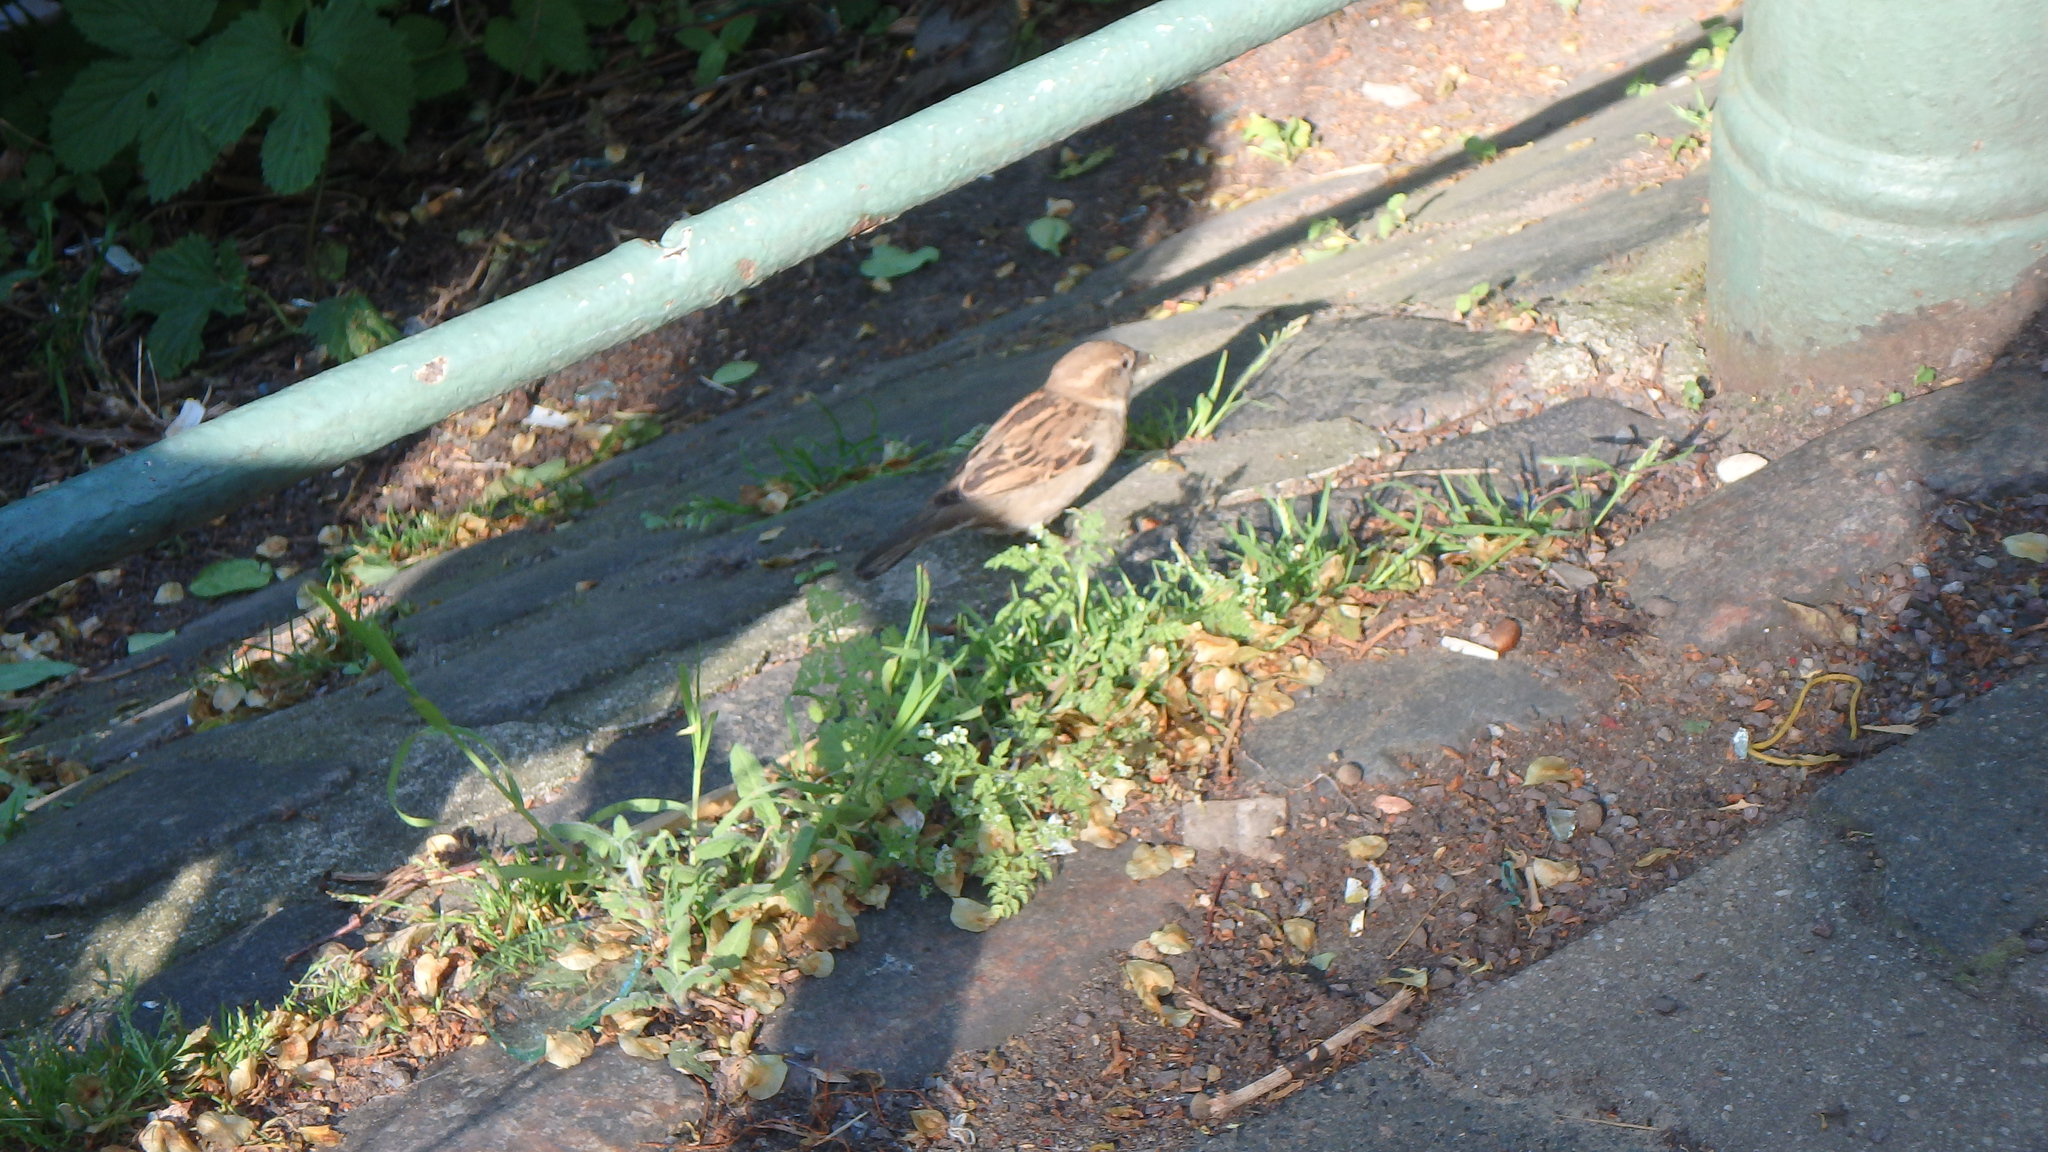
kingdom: Animalia
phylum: Chordata
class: Aves
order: Passeriformes
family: Passeridae
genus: Passer
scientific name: Passer domesticus
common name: House sparrow
